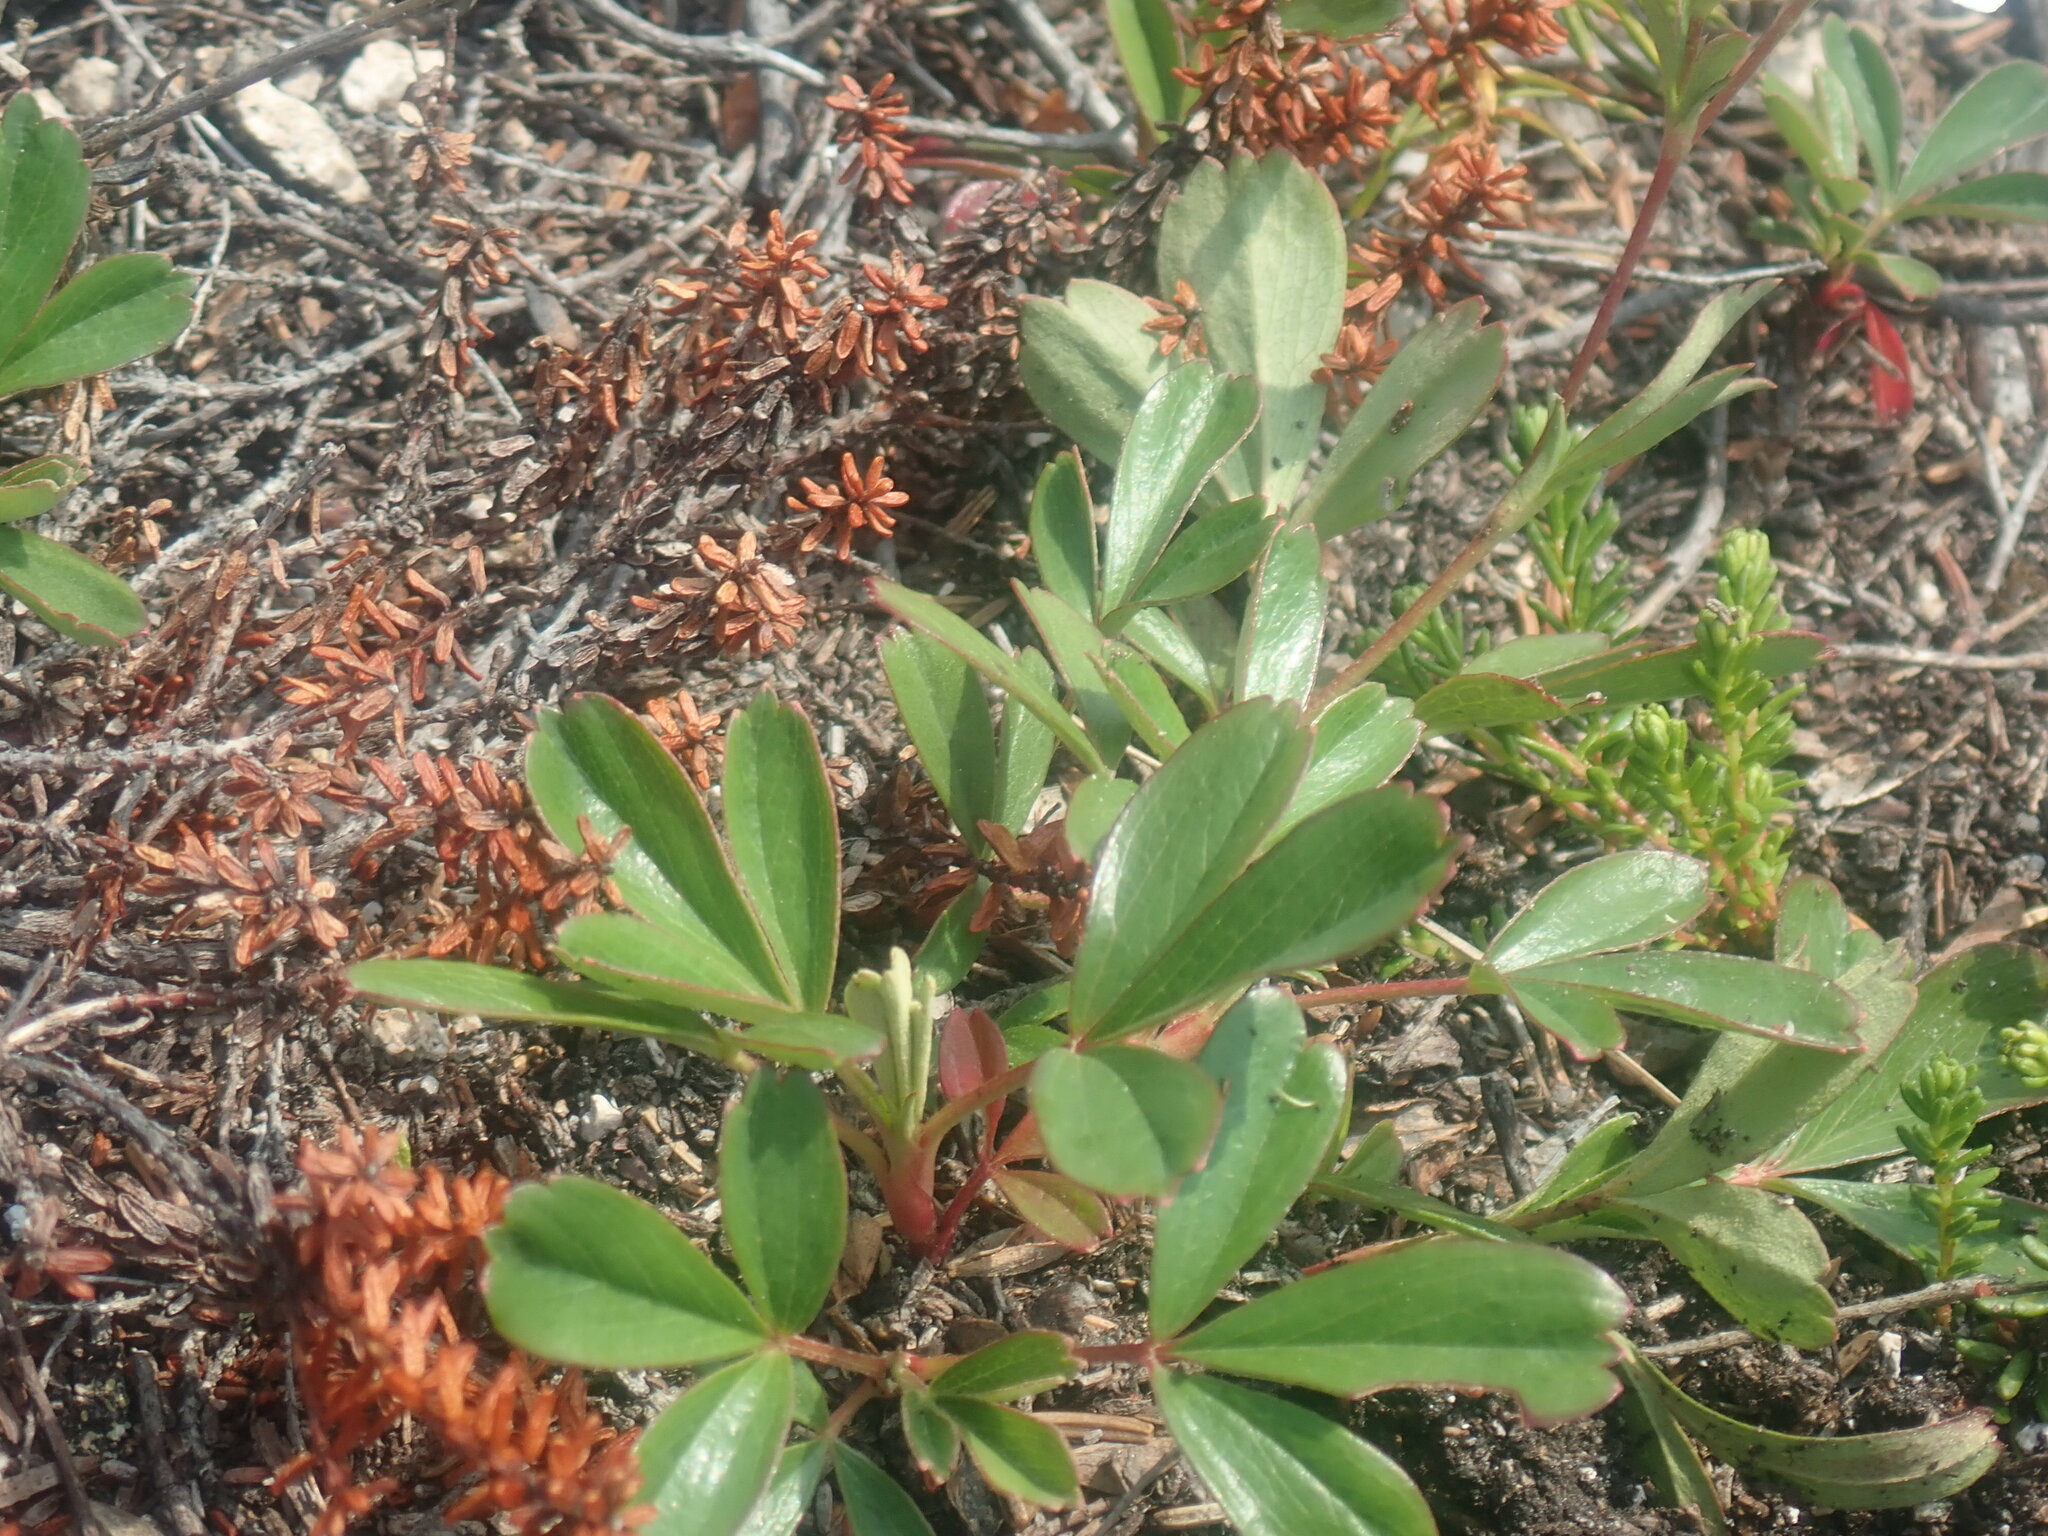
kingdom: Plantae
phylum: Tracheophyta
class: Magnoliopsida
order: Rosales
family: Rosaceae
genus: Sibbaldia
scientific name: Sibbaldia tridentata
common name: Three-toothed cinquefoil
